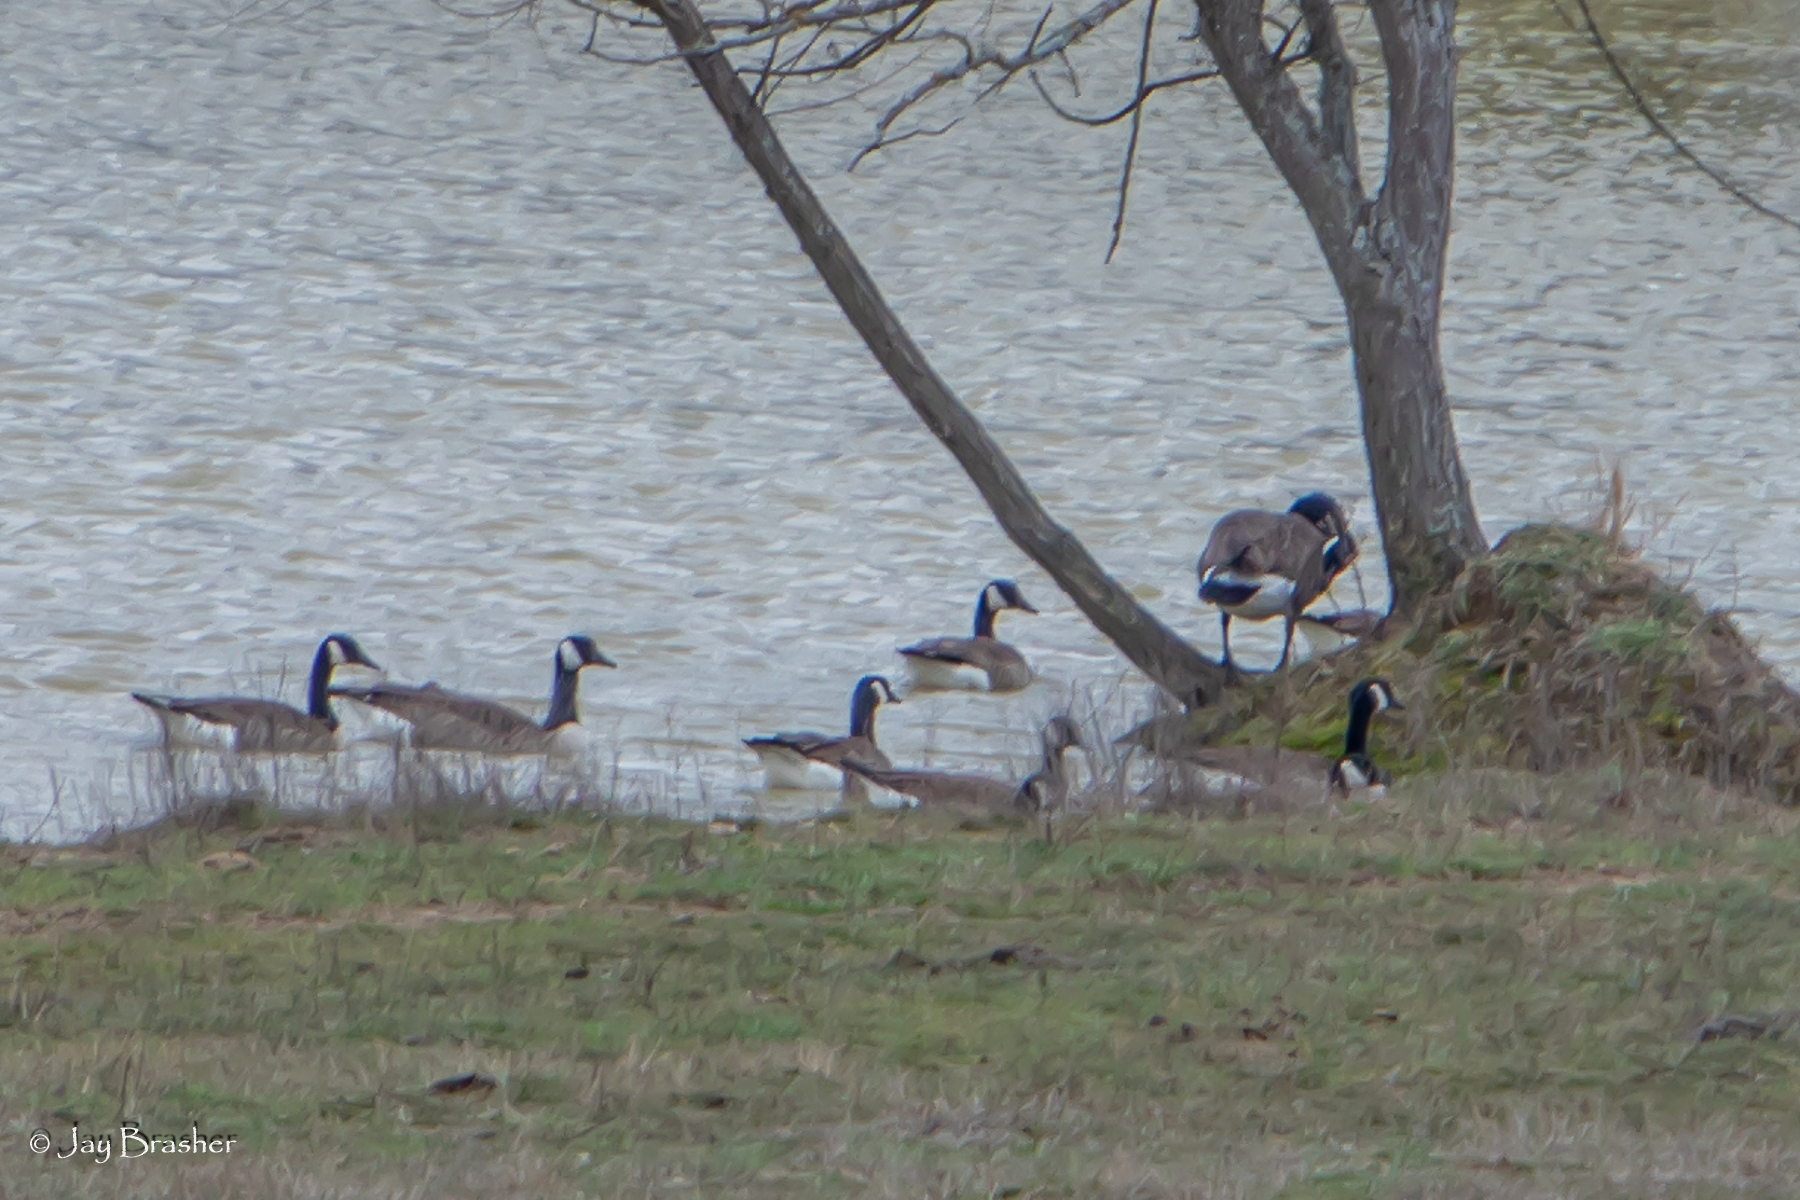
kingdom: Animalia
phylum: Chordata
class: Aves
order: Anseriformes
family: Anatidae
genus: Branta
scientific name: Branta canadensis
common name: Canada goose
